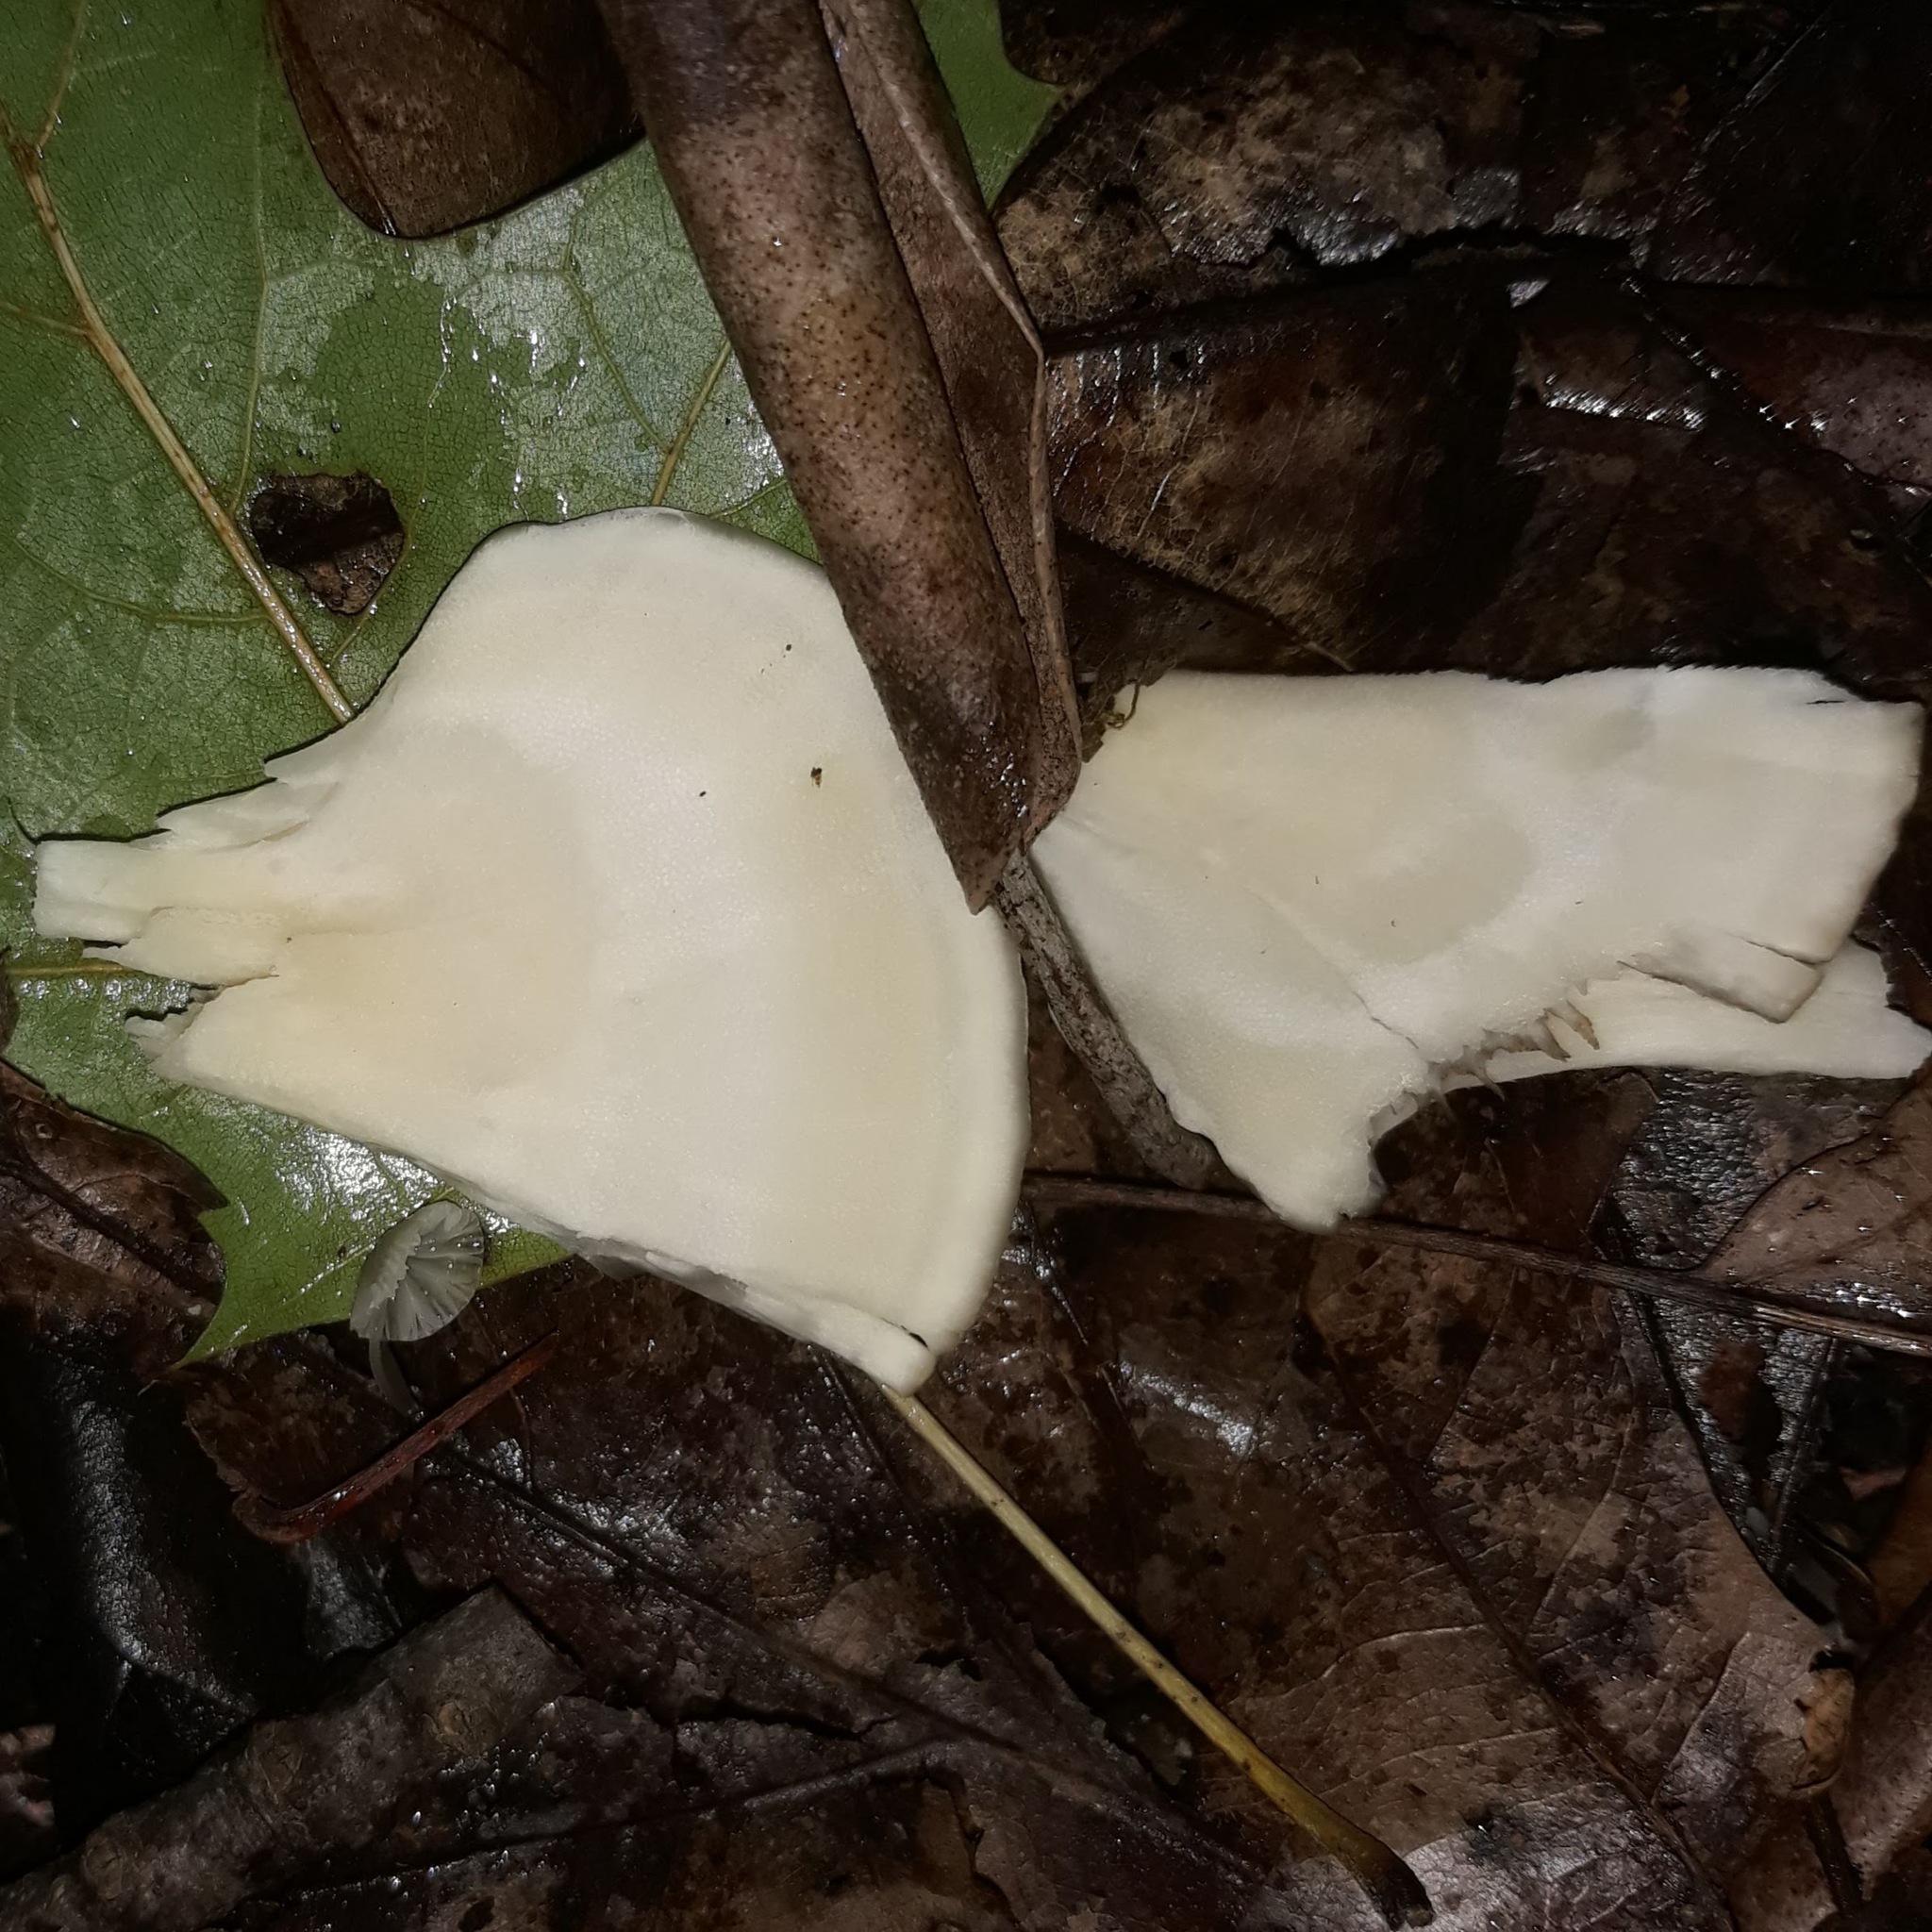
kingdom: Fungi
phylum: Basidiomycota
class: Agaricomycetes
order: Polyporales
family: Grifolaceae
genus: Grifola
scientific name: Grifola frondosa
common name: Hen of the woods
